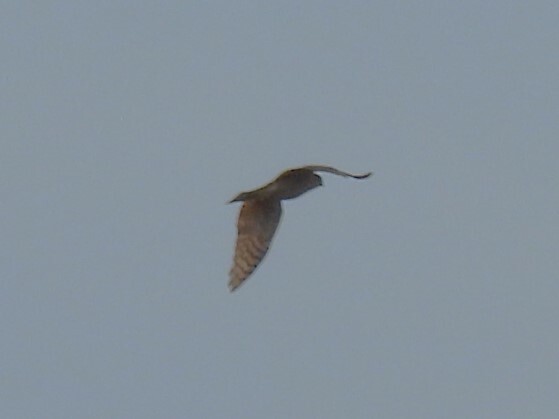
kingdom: Animalia
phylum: Chordata
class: Aves
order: Falconiformes
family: Falconidae
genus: Falco
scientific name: Falco tinnunculus
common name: Common kestrel
